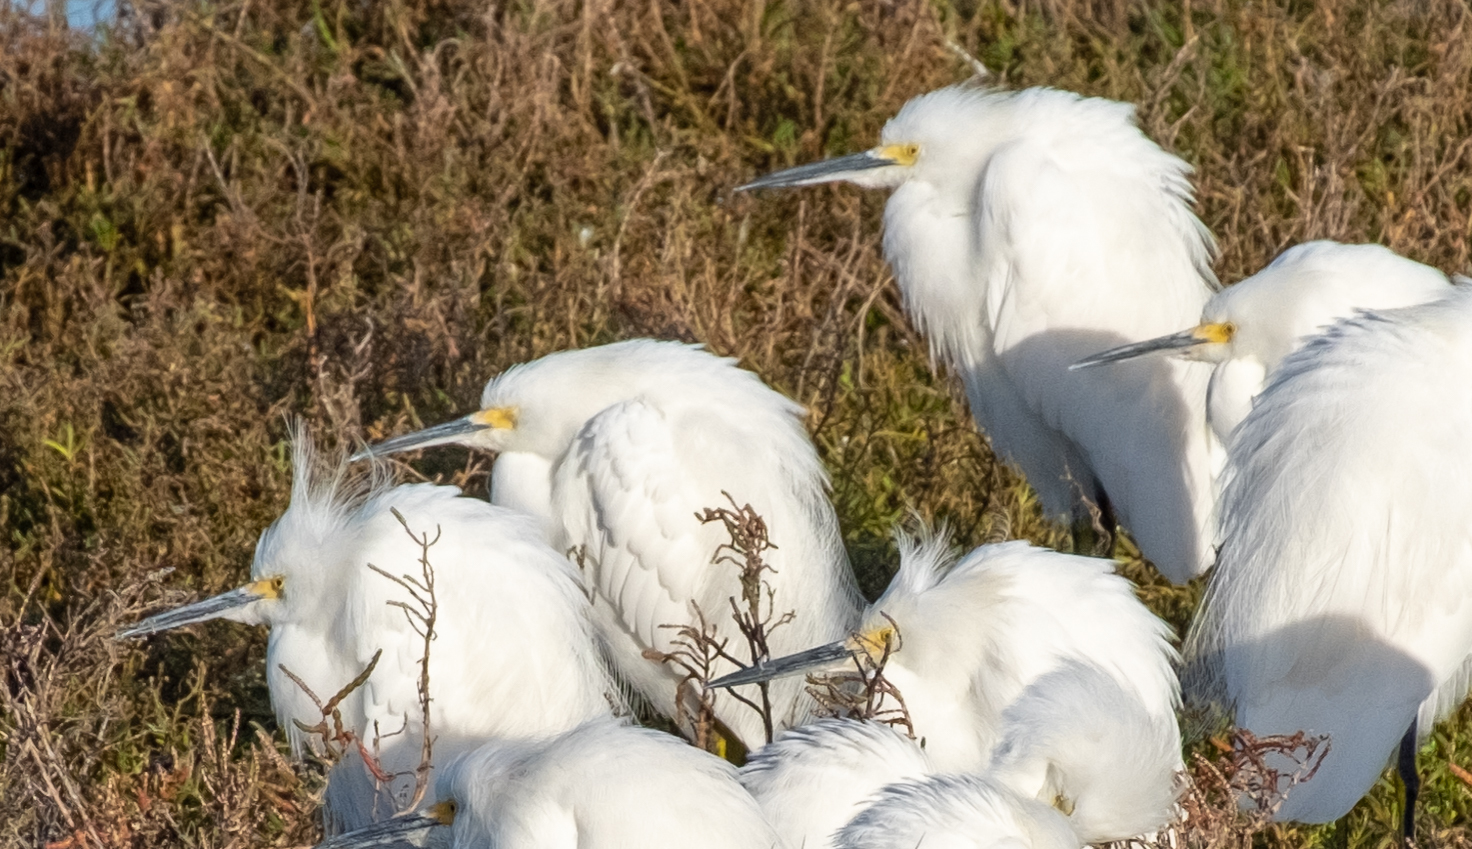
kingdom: Animalia
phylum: Chordata
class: Aves
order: Pelecaniformes
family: Ardeidae
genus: Egretta
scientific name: Egretta thula
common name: Snowy egret
